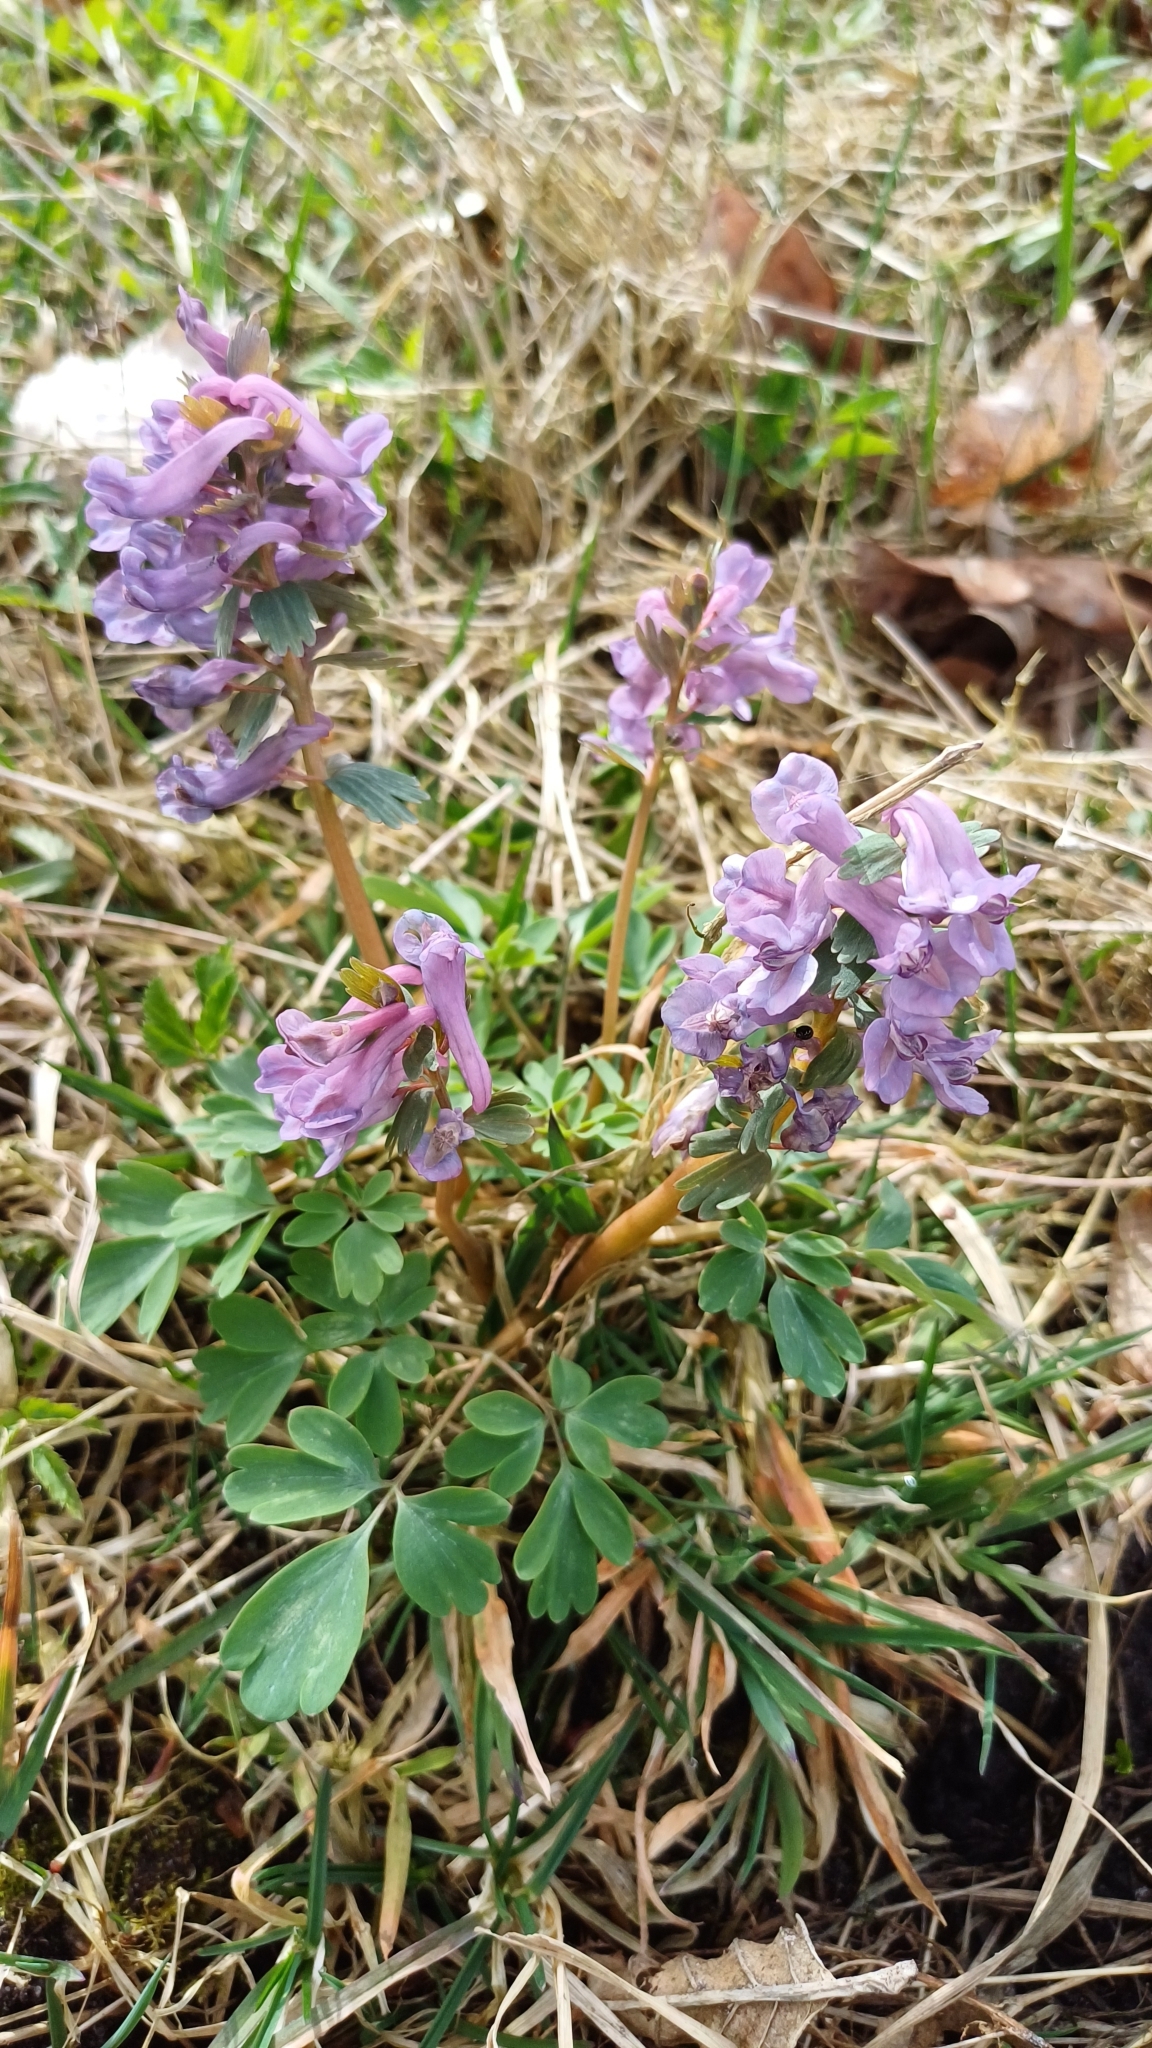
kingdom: Plantae
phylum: Tracheophyta
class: Magnoliopsida
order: Ranunculales
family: Papaveraceae
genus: Corydalis
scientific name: Corydalis solida
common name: Bird-in-a-bush
